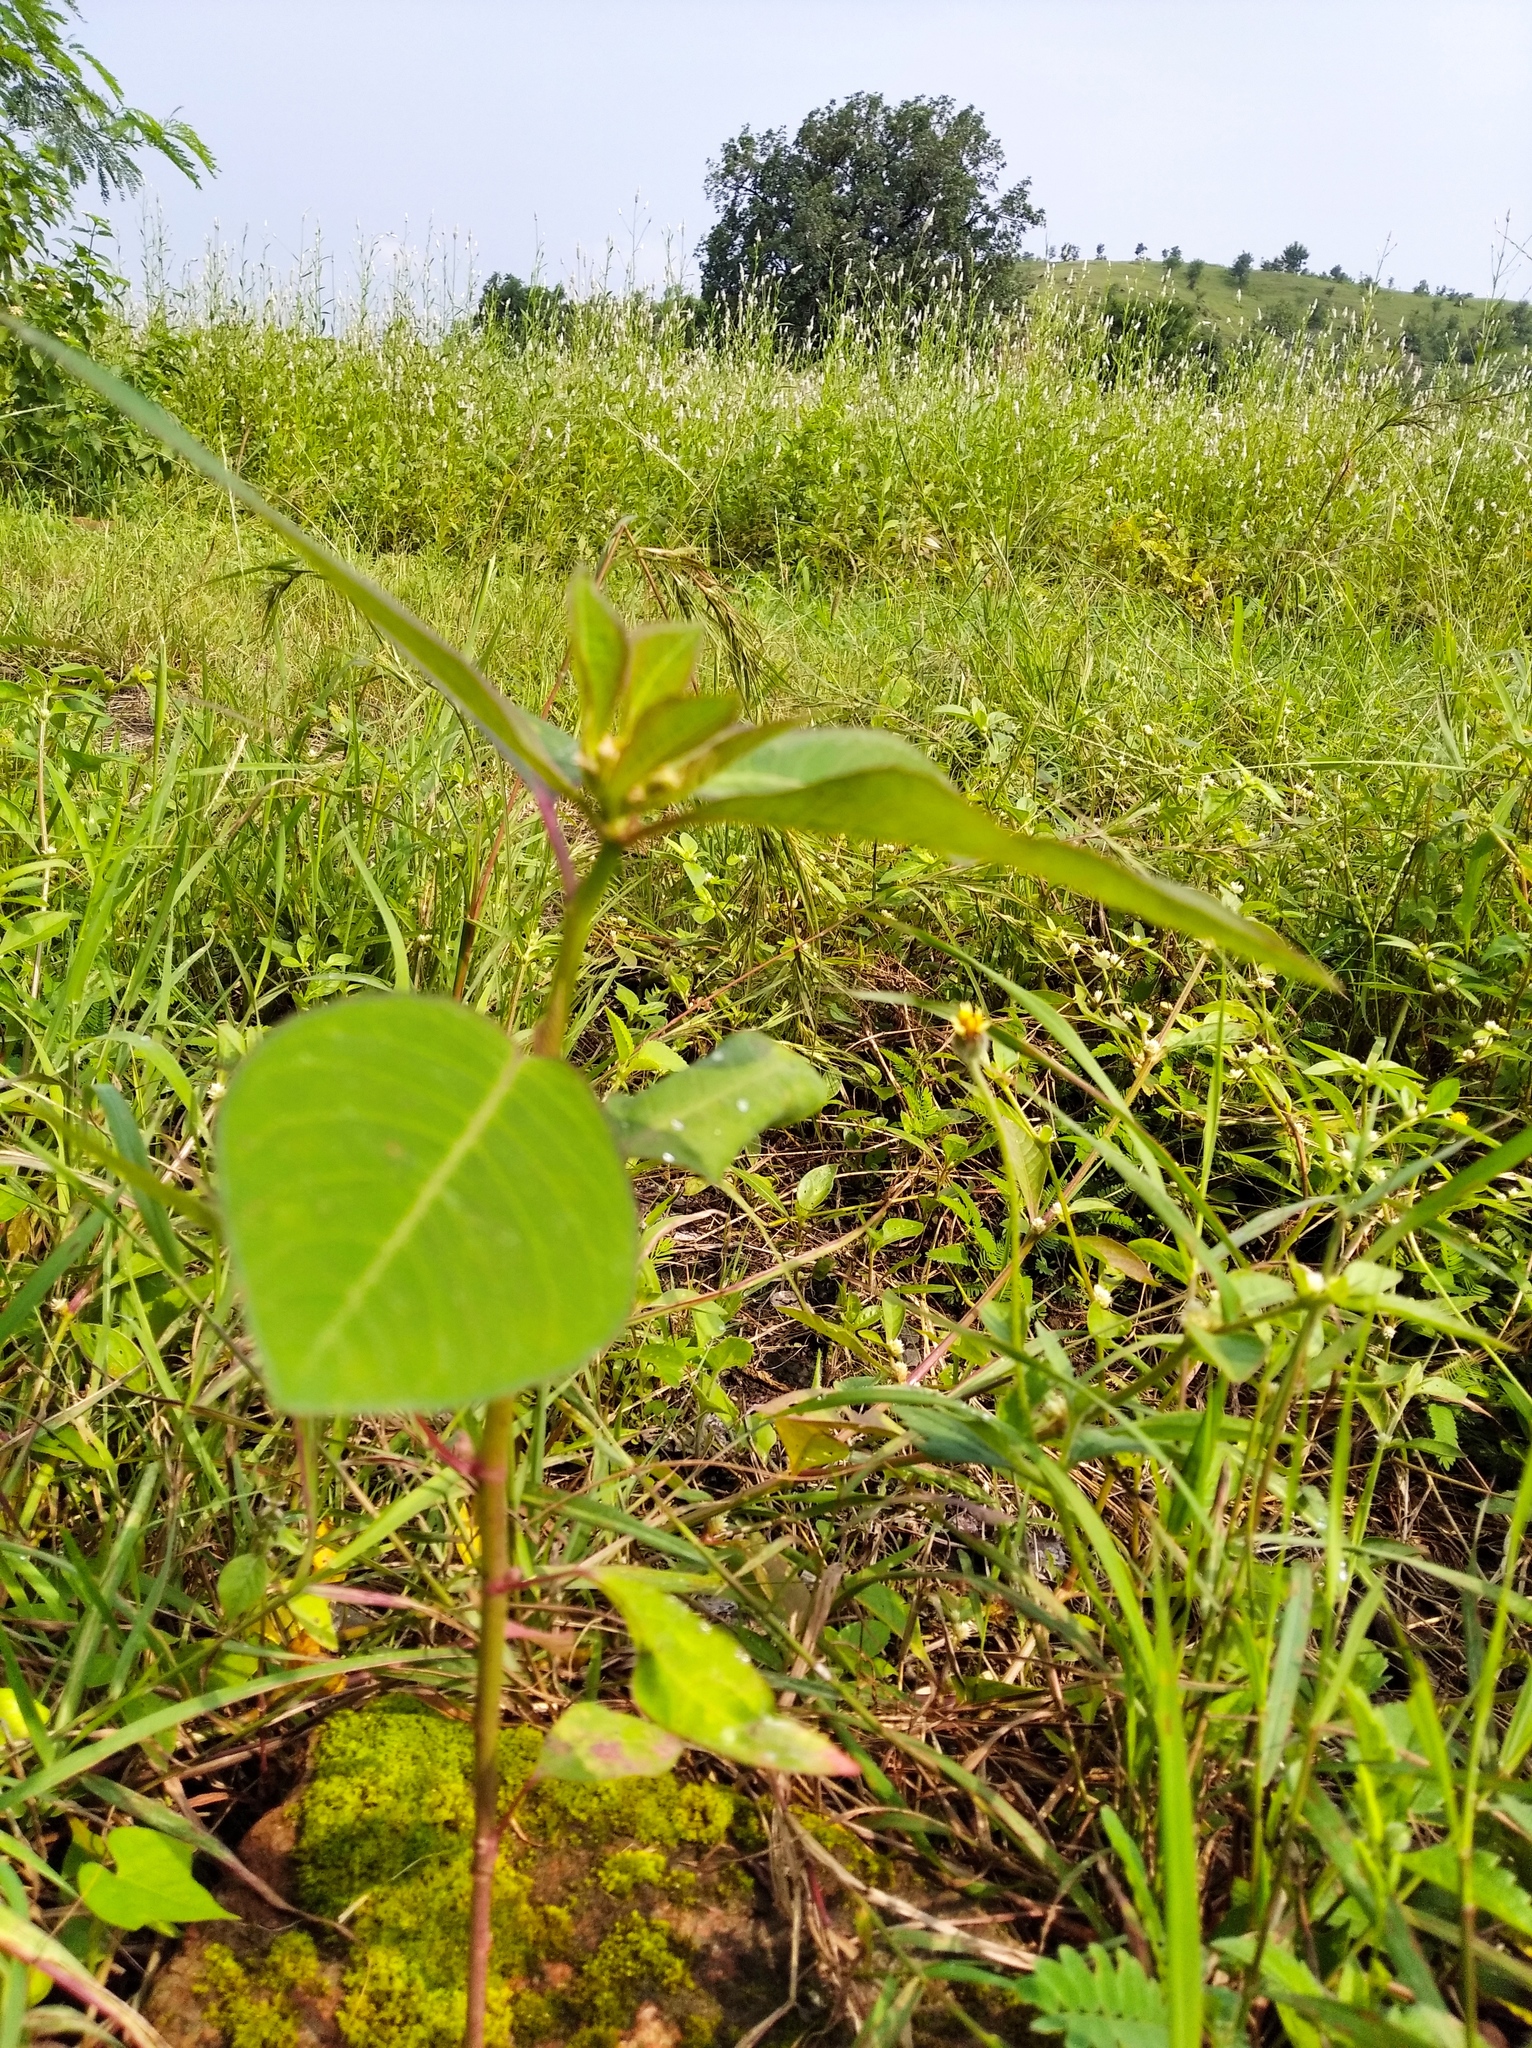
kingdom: Plantae
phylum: Tracheophyta
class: Magnoliopsida
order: Malpighiales
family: Euphorbiaceae
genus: Euphorbia
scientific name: Euphorbia heterophylla
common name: Mexican fireplant
